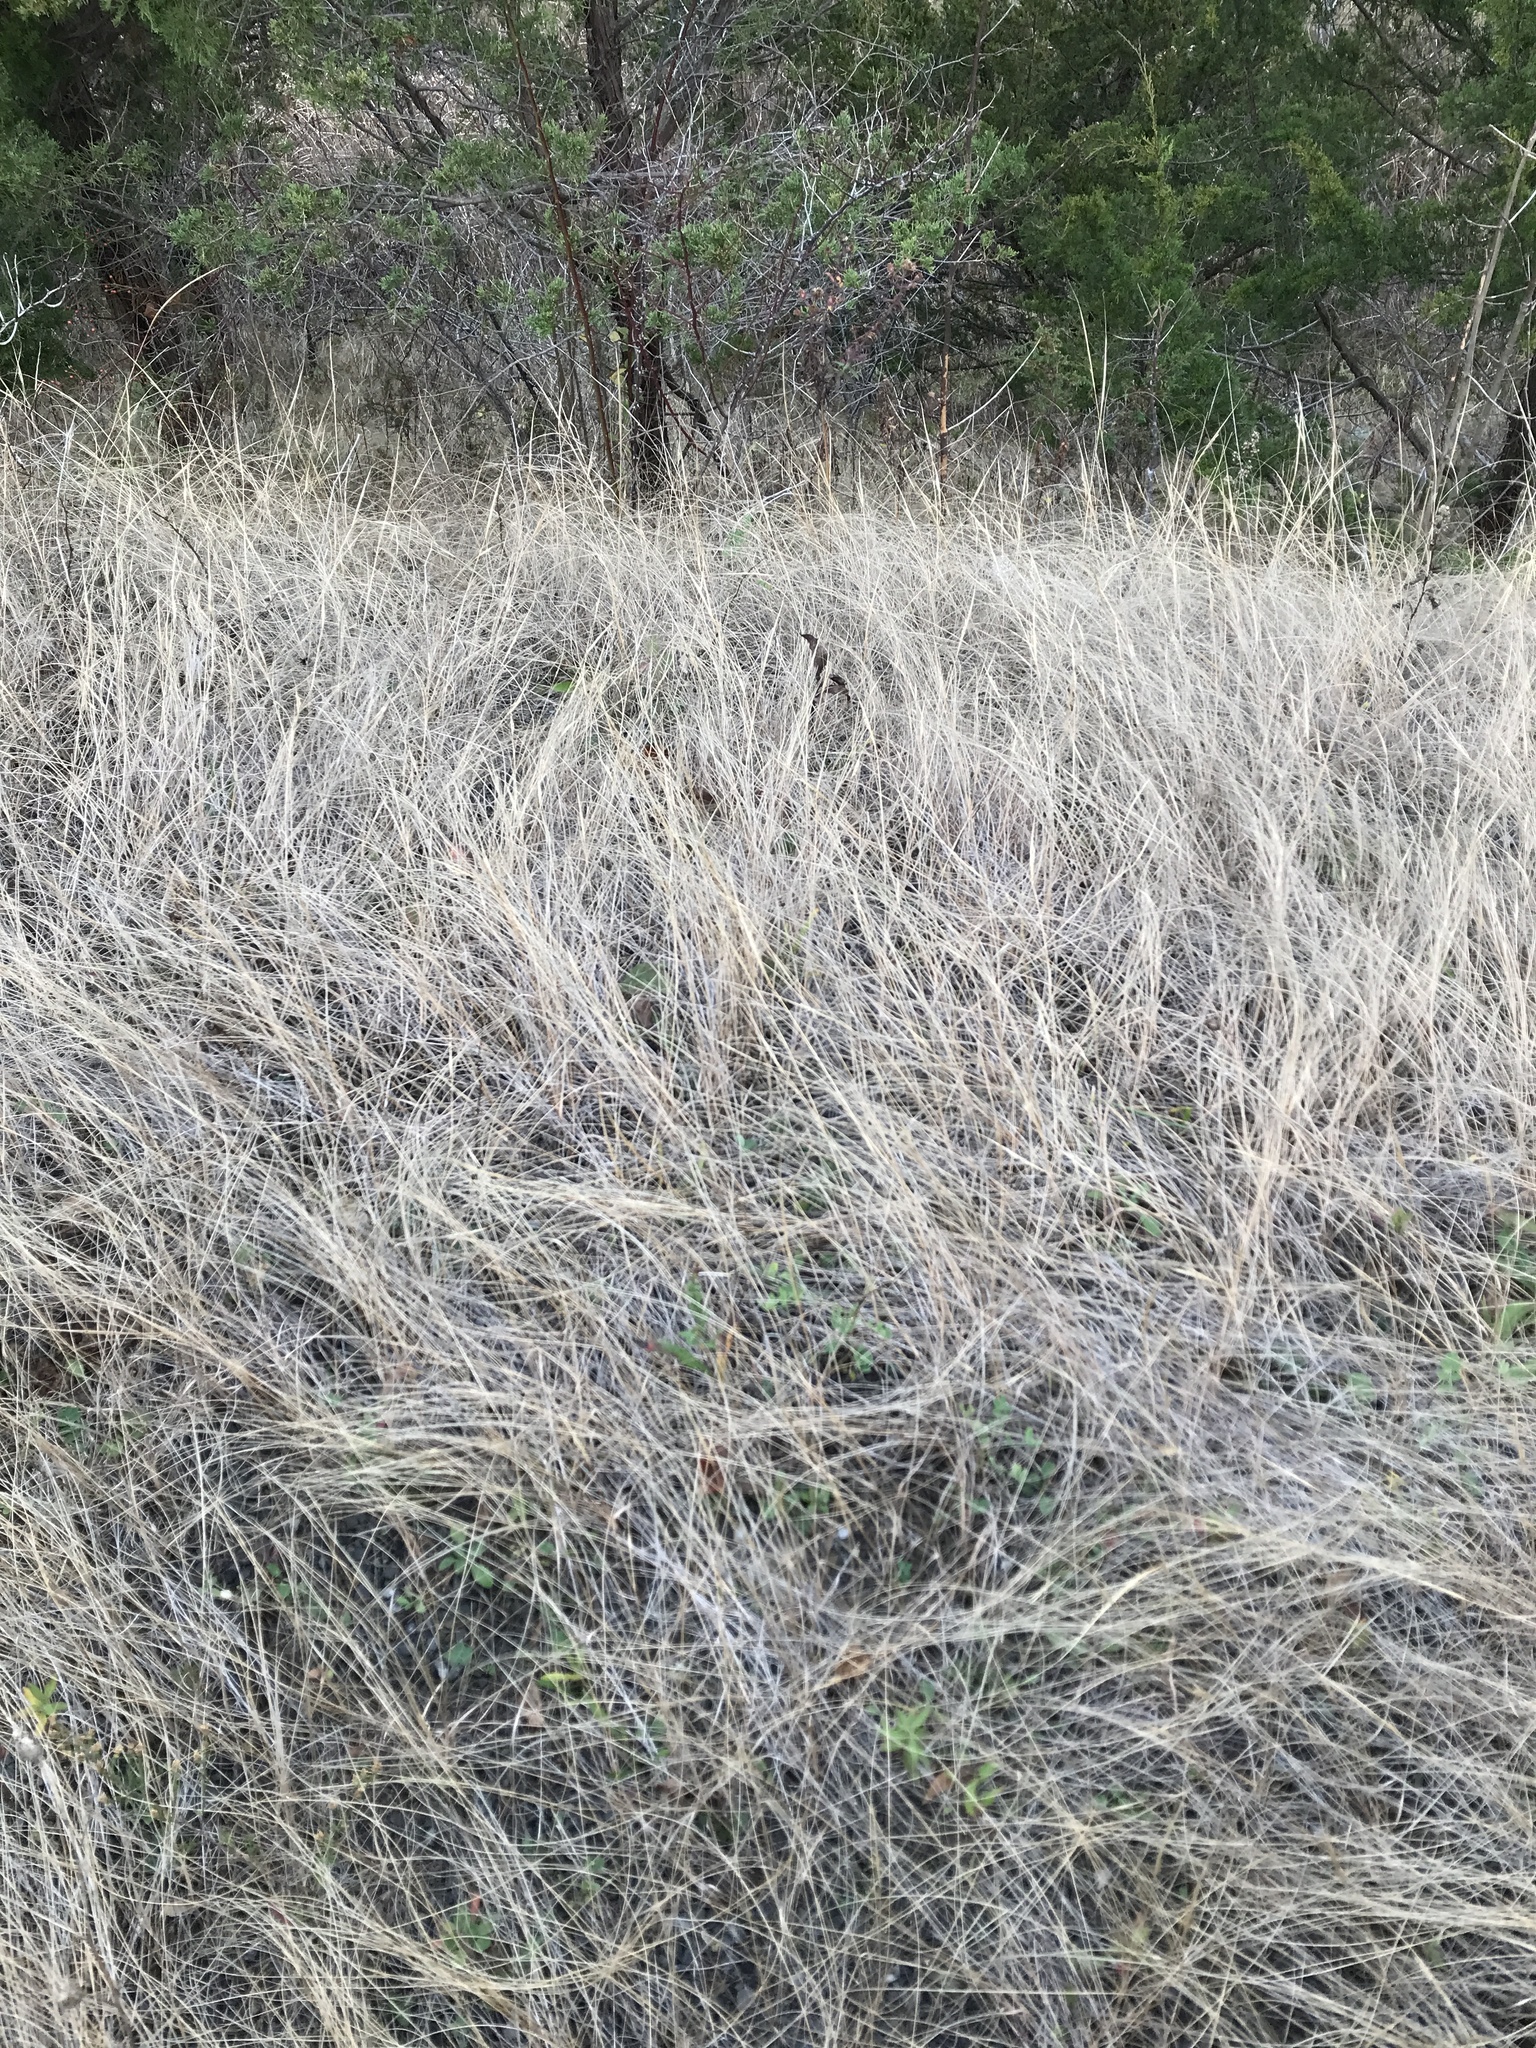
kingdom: Plantae
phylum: Tracheophyta
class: Liliopsida
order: Poales
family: Poaceae
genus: Sporobolus
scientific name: Sporobolus compositus
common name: Rough dropseed
